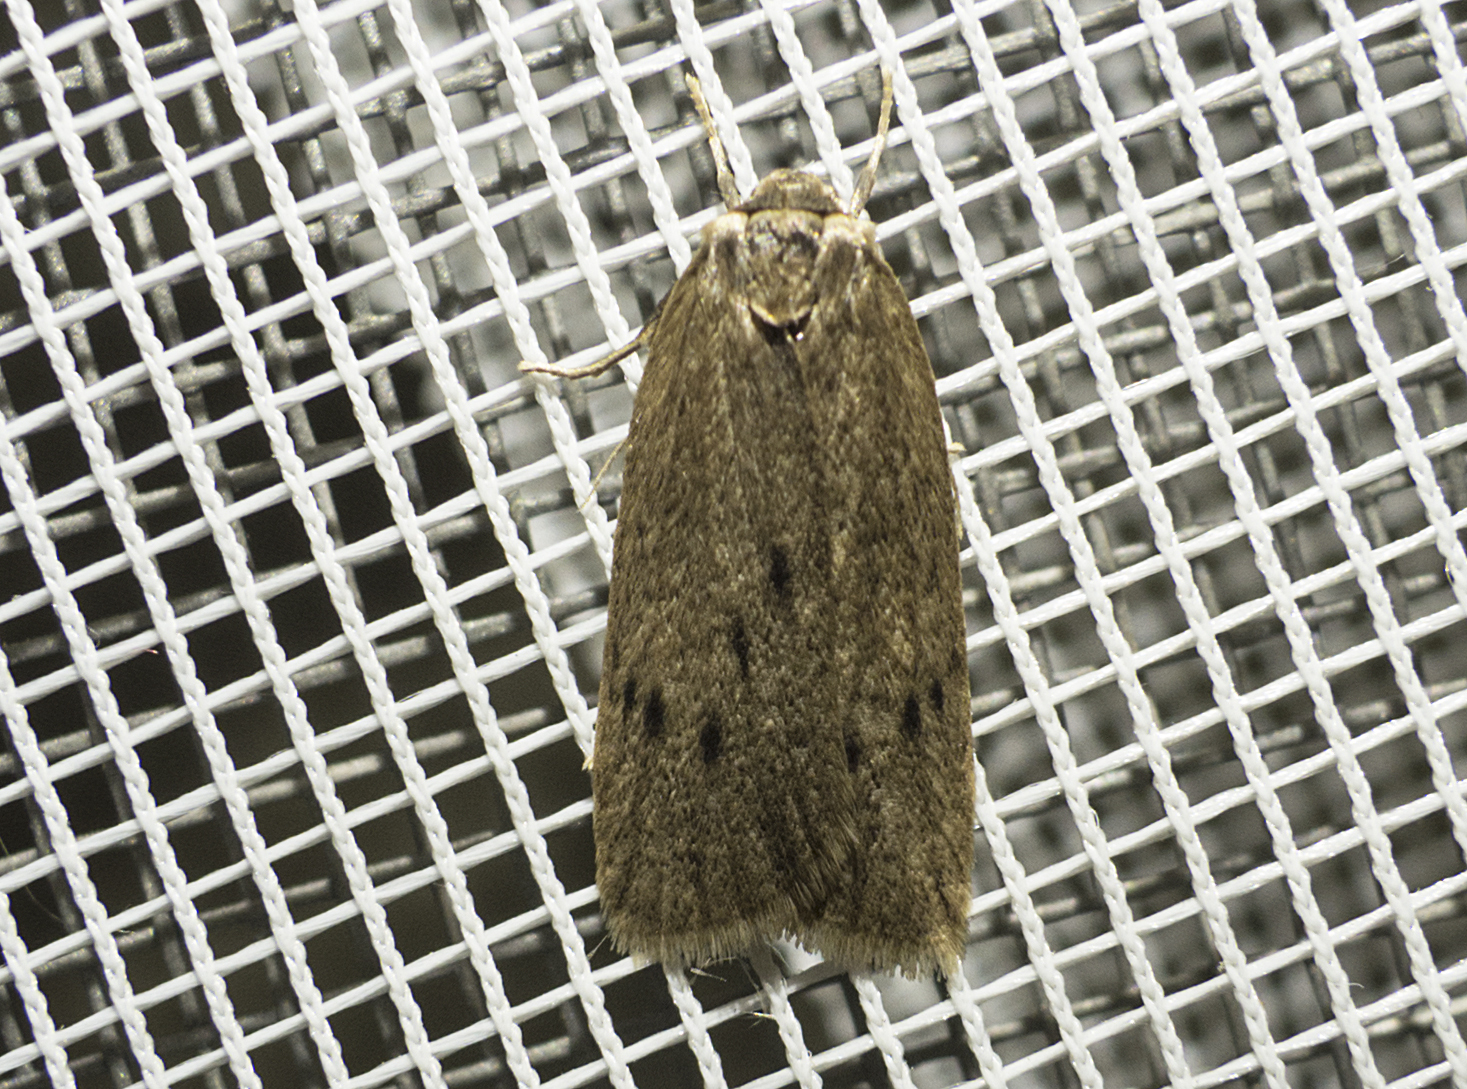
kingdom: Animalia
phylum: Arthropoda
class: Insecta
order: Lepidoptera
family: Erebidae
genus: Pelosia
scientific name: Pelosia obtusa
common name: Small dotted footman
